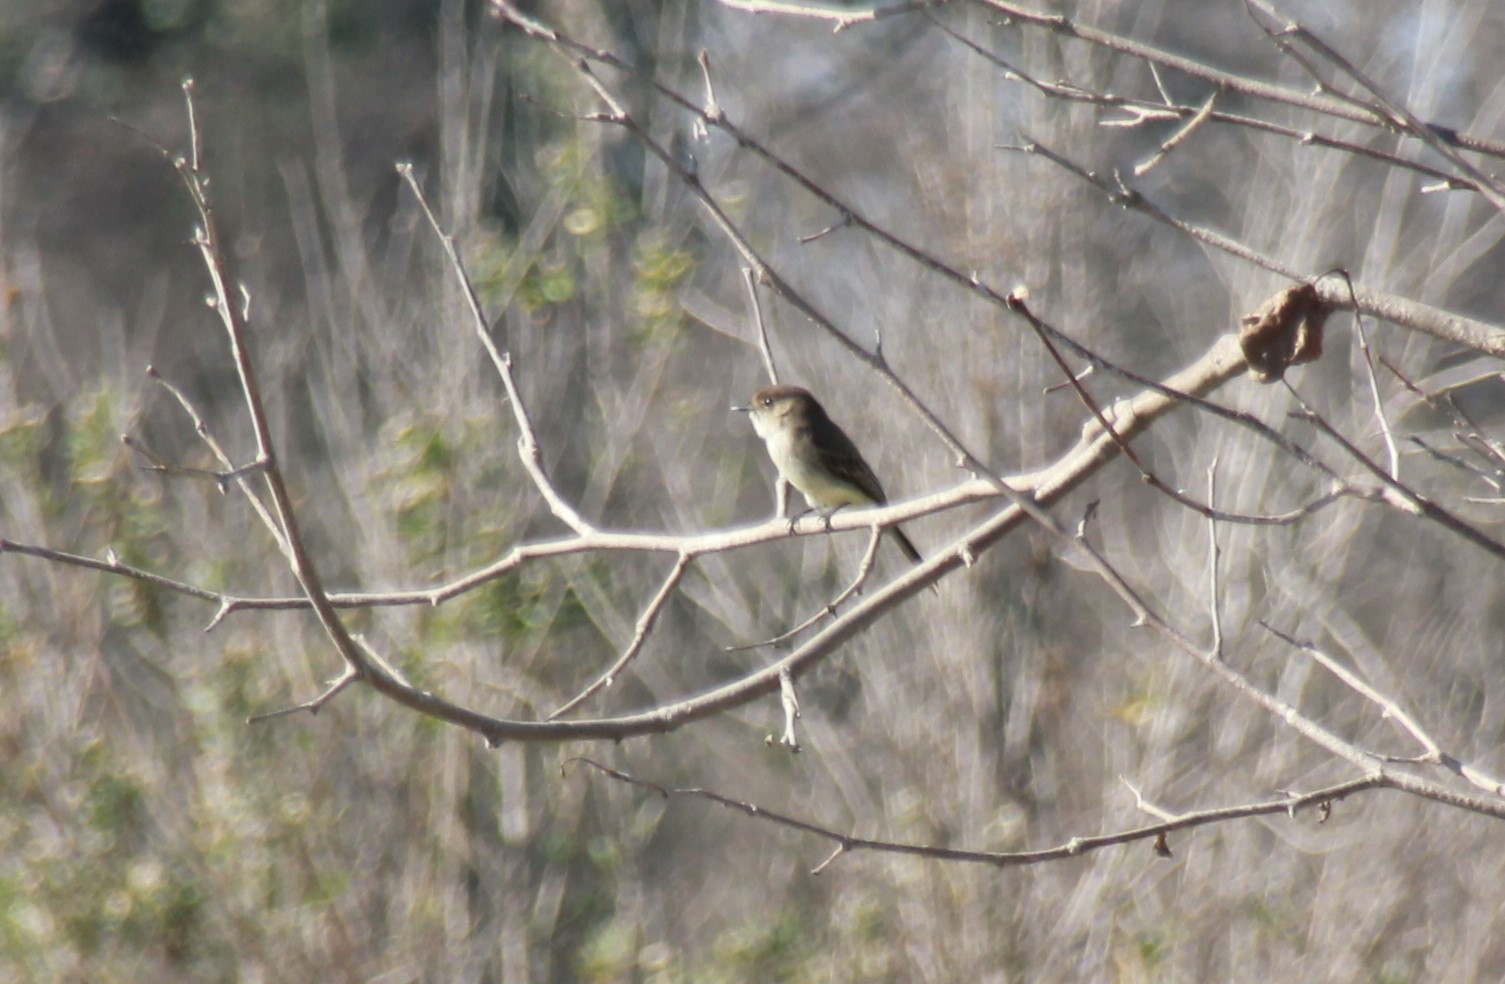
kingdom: Animalia
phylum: Chordata
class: Aves
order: Passeriformes
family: Tyrannidae
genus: Sayornis
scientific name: Sayornis phoebe
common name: Eastern phoebe
